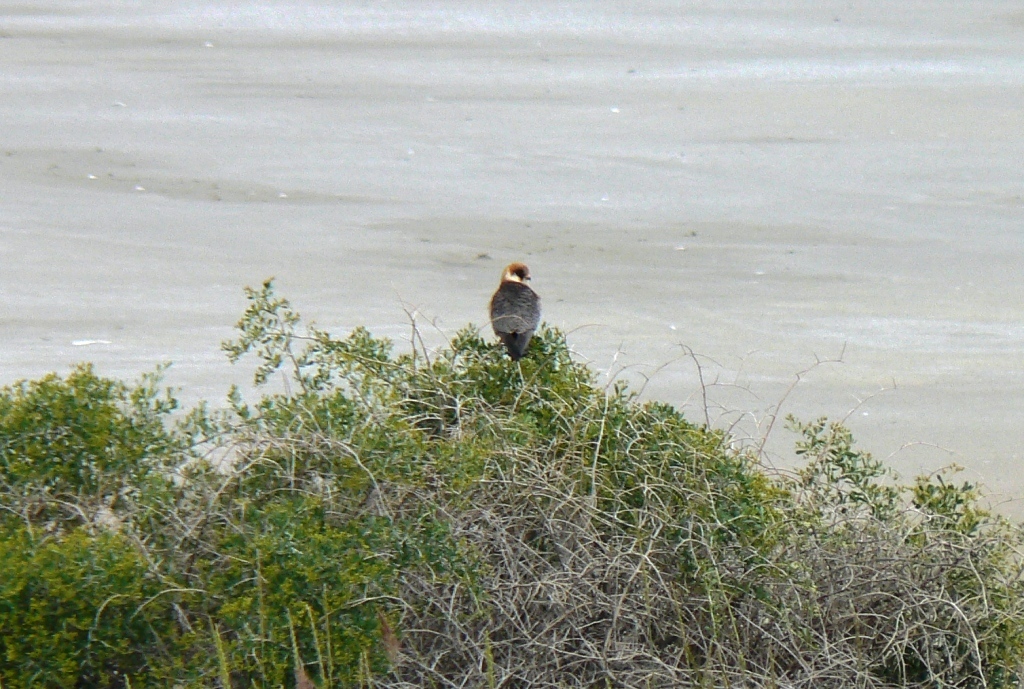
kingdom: Animalia
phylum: Chordata
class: Aves
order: Falconiformes
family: Falconidae
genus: Falco
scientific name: Falco vespertinus
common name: Red-footed falcon
